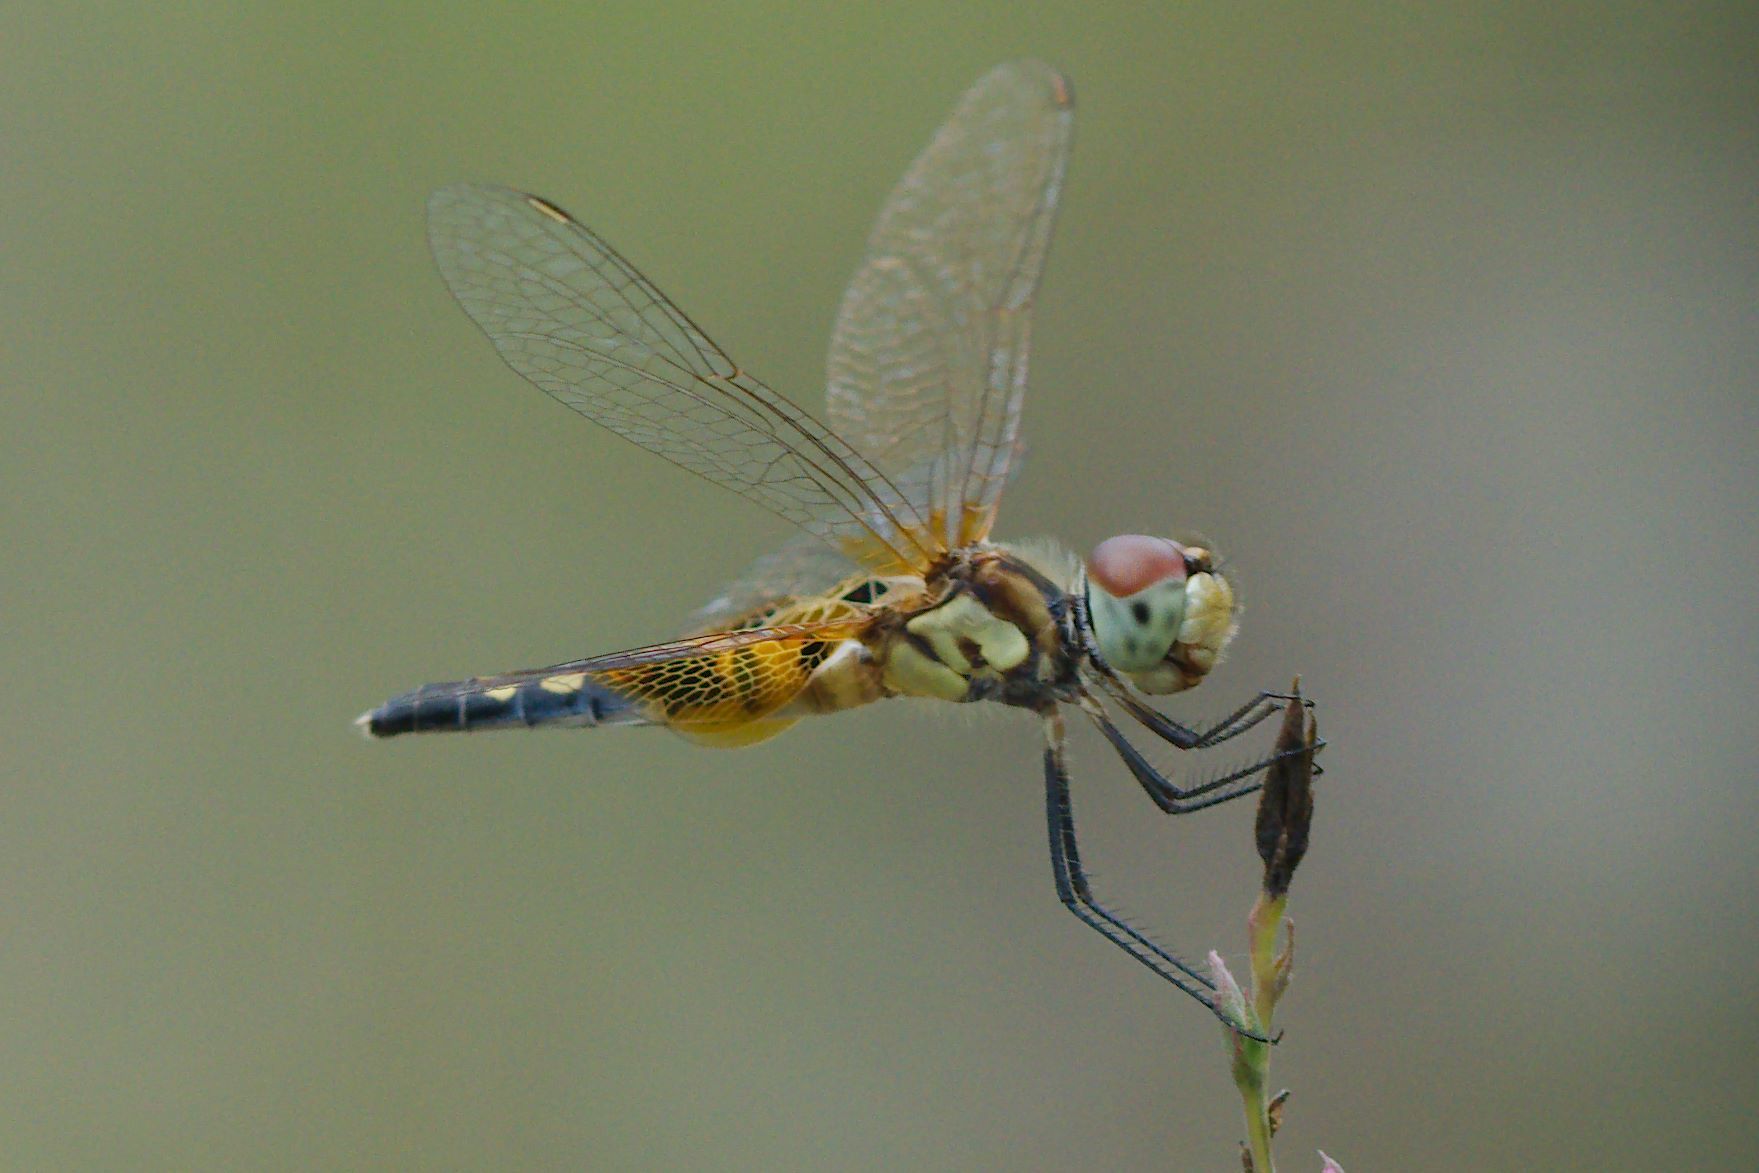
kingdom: Animalia
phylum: Arthropoda
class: Insecta
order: Odonata
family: Libellulidae
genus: Celithemis
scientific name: Celithemis amanda
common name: Amanda's pennant
